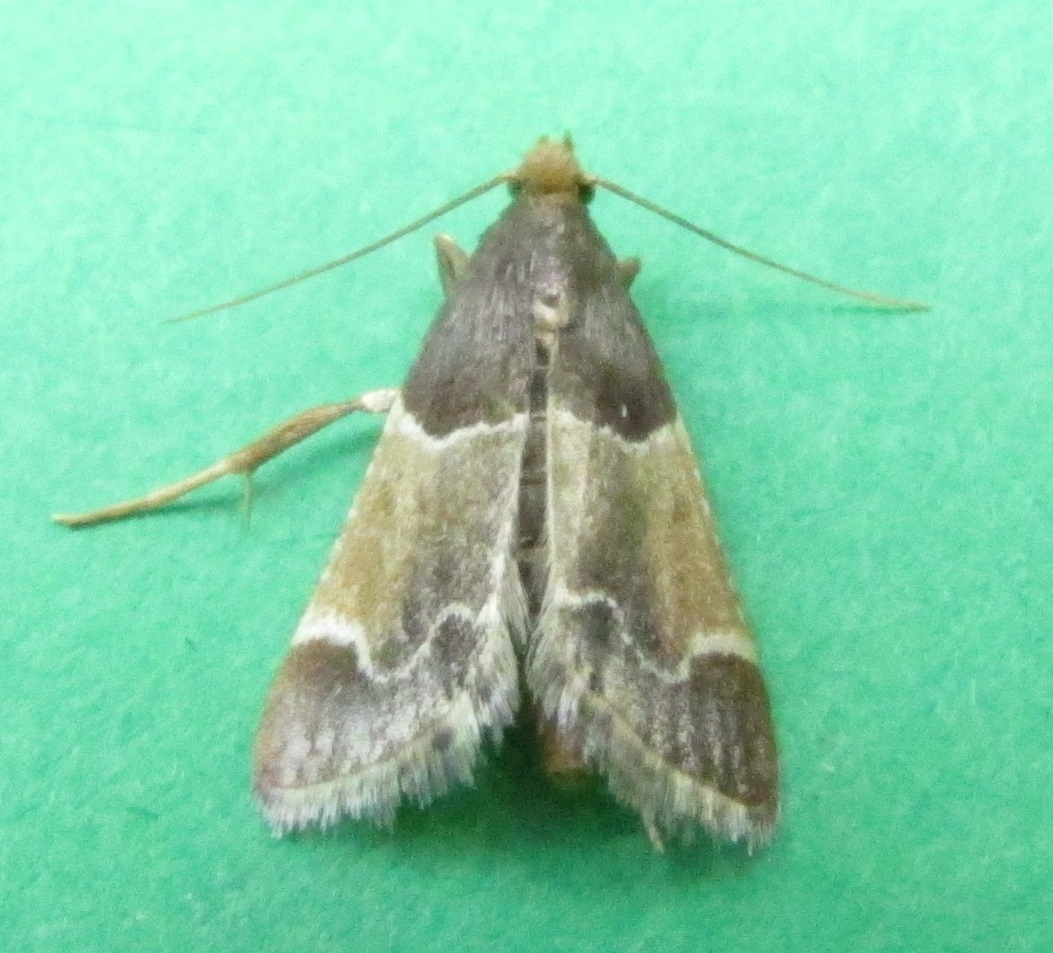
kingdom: Animalia
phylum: Arthropoda
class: Insecta
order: Lepidoptera
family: Pyralidae
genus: Pyralis
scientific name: Pyralis farinalis
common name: Meal moth
